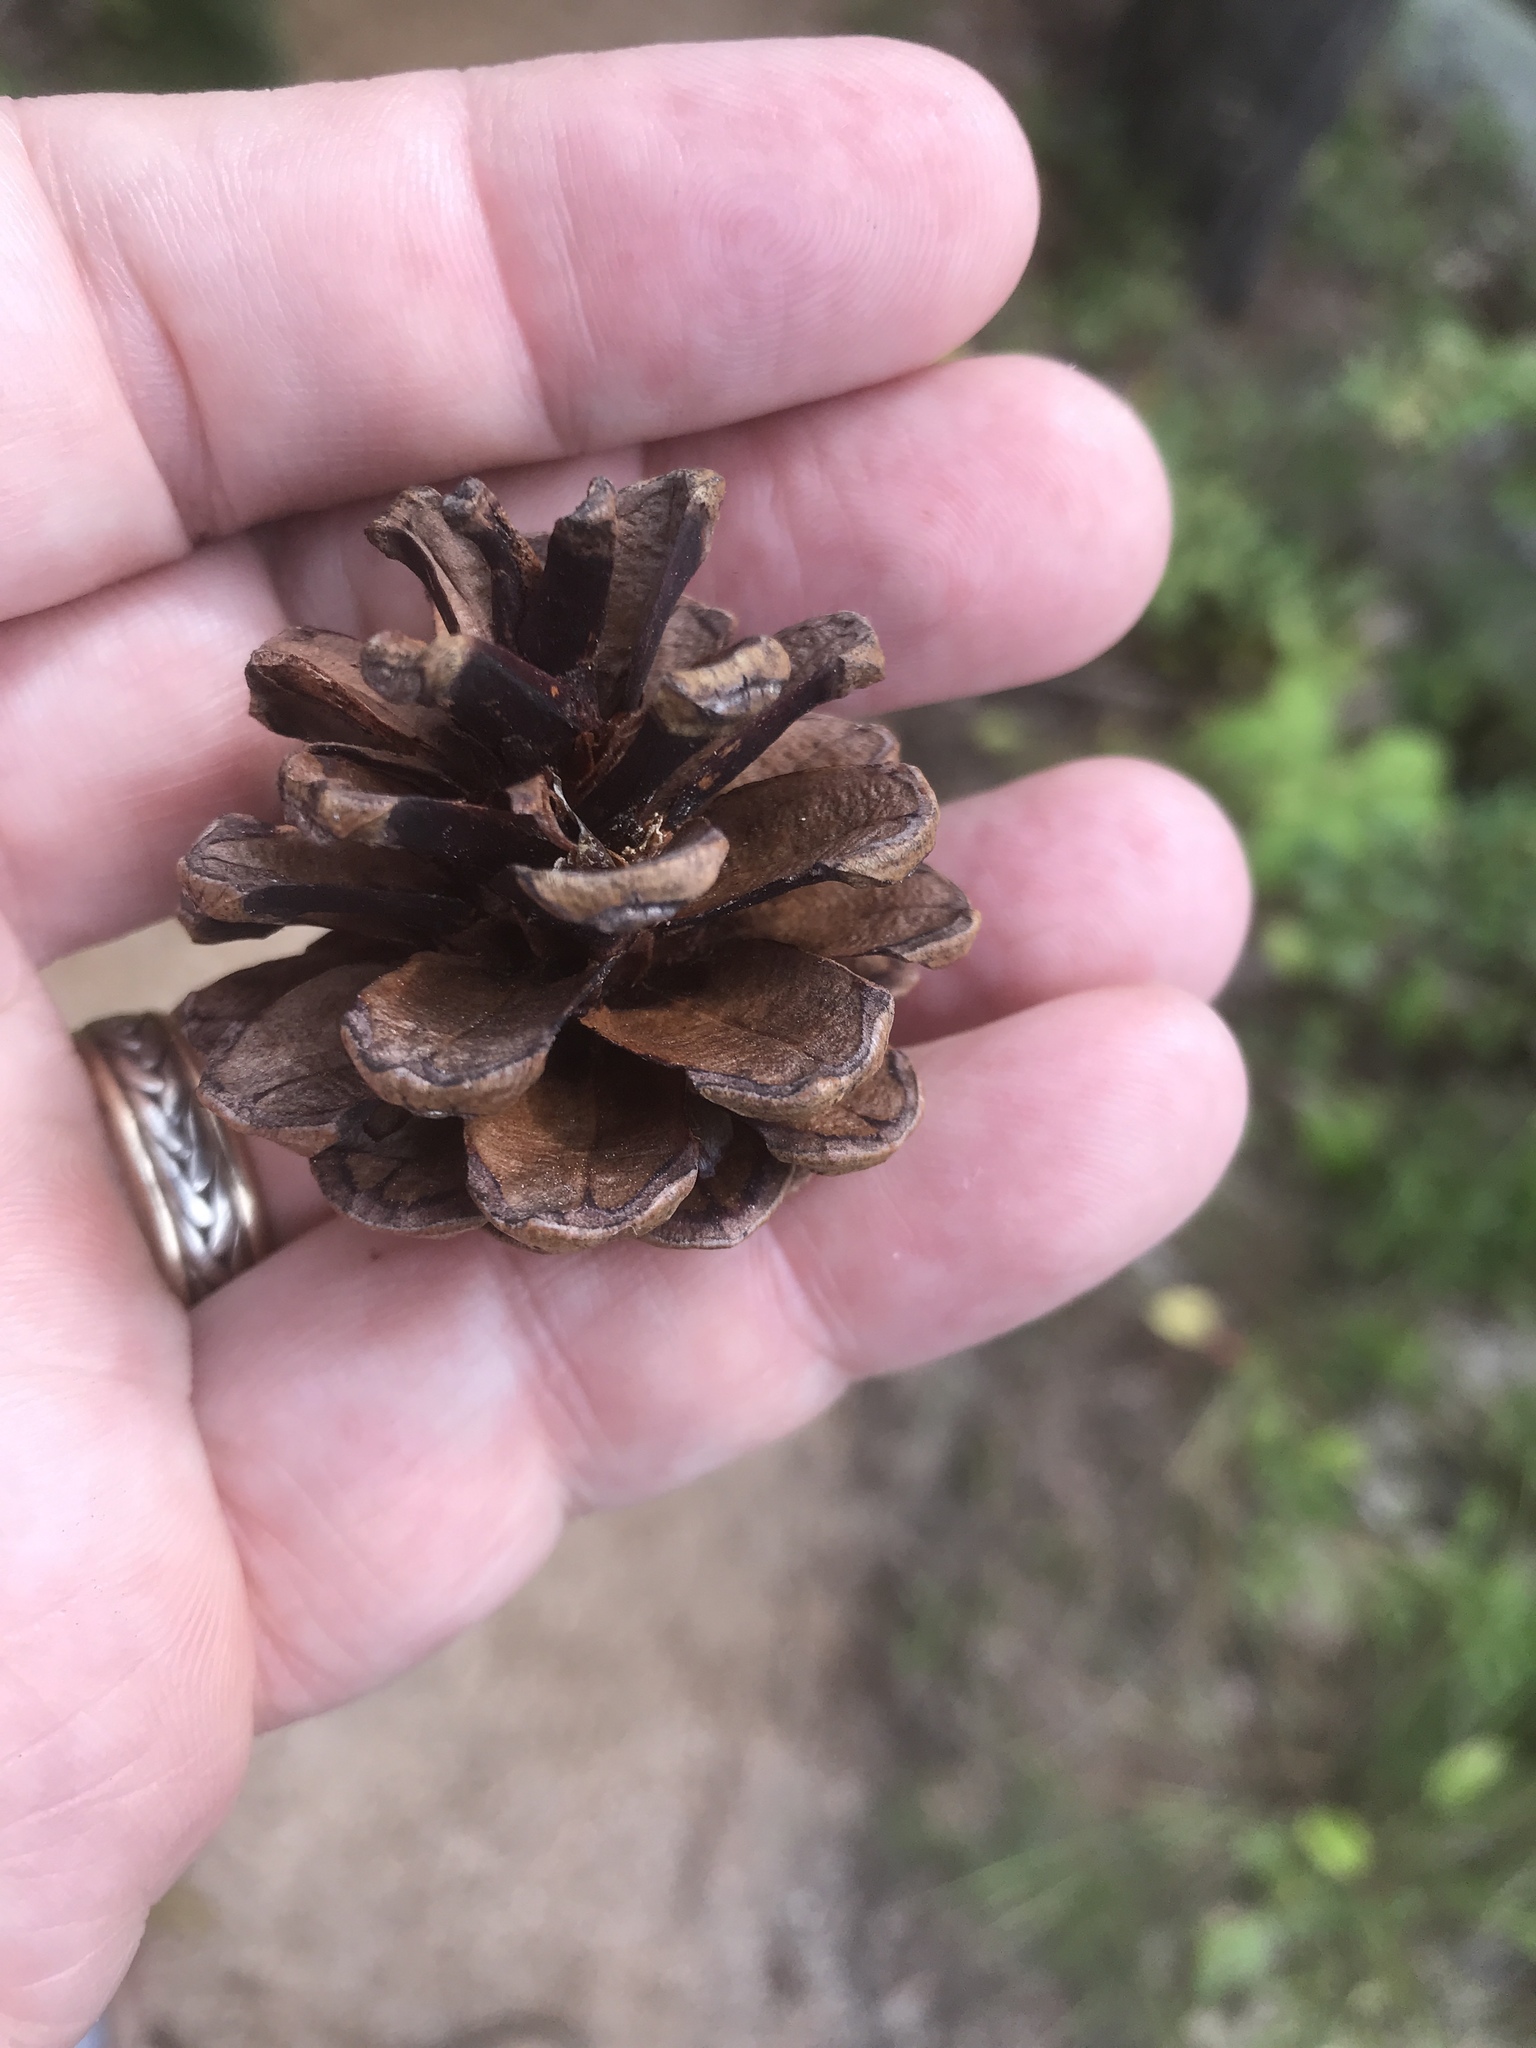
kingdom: Plantae
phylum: Tracheophyta
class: Pinopsida
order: Pinales
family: Pinaceae
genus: Pinus
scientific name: Pinus resinosa
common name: Norway pine
